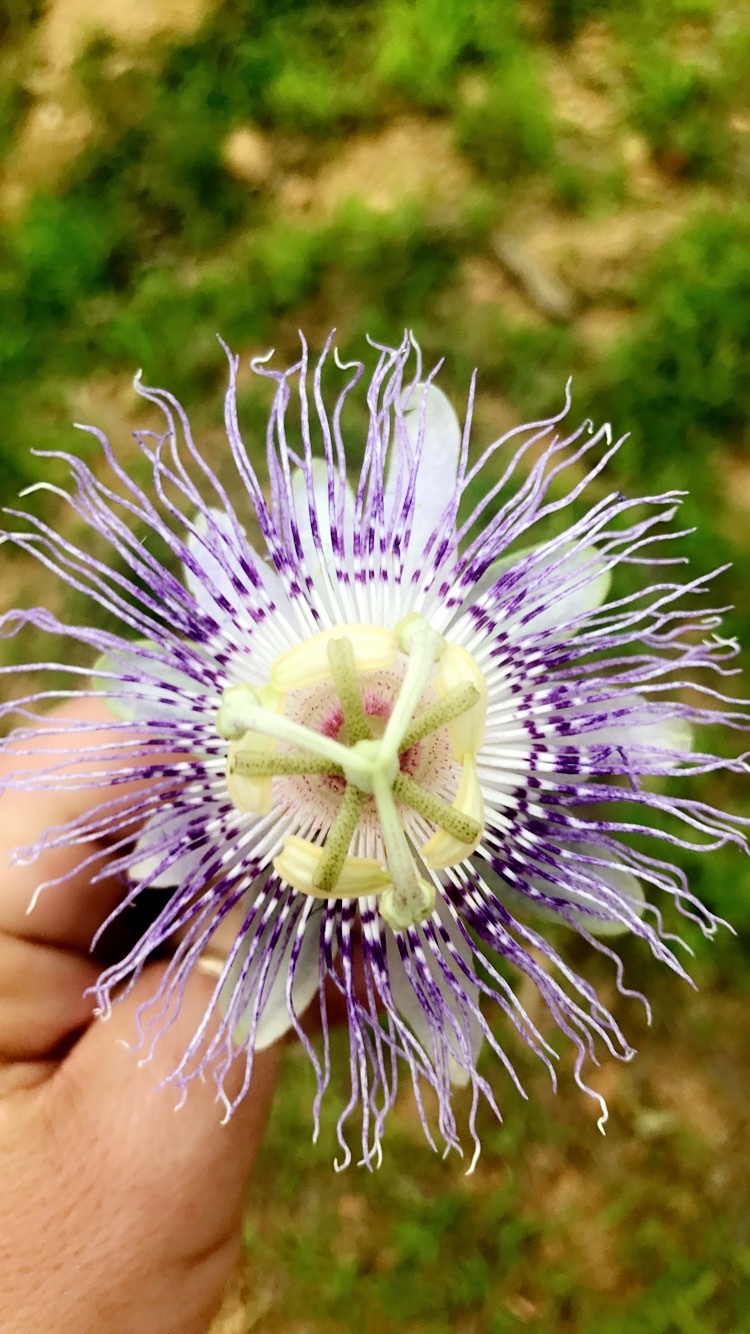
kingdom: Plantae
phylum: Tracheophyta
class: Magnoliopsida
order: Malpighiales
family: Passifloraceae
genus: Passiflora
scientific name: Passiflora incarnata
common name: Apricot-vine
